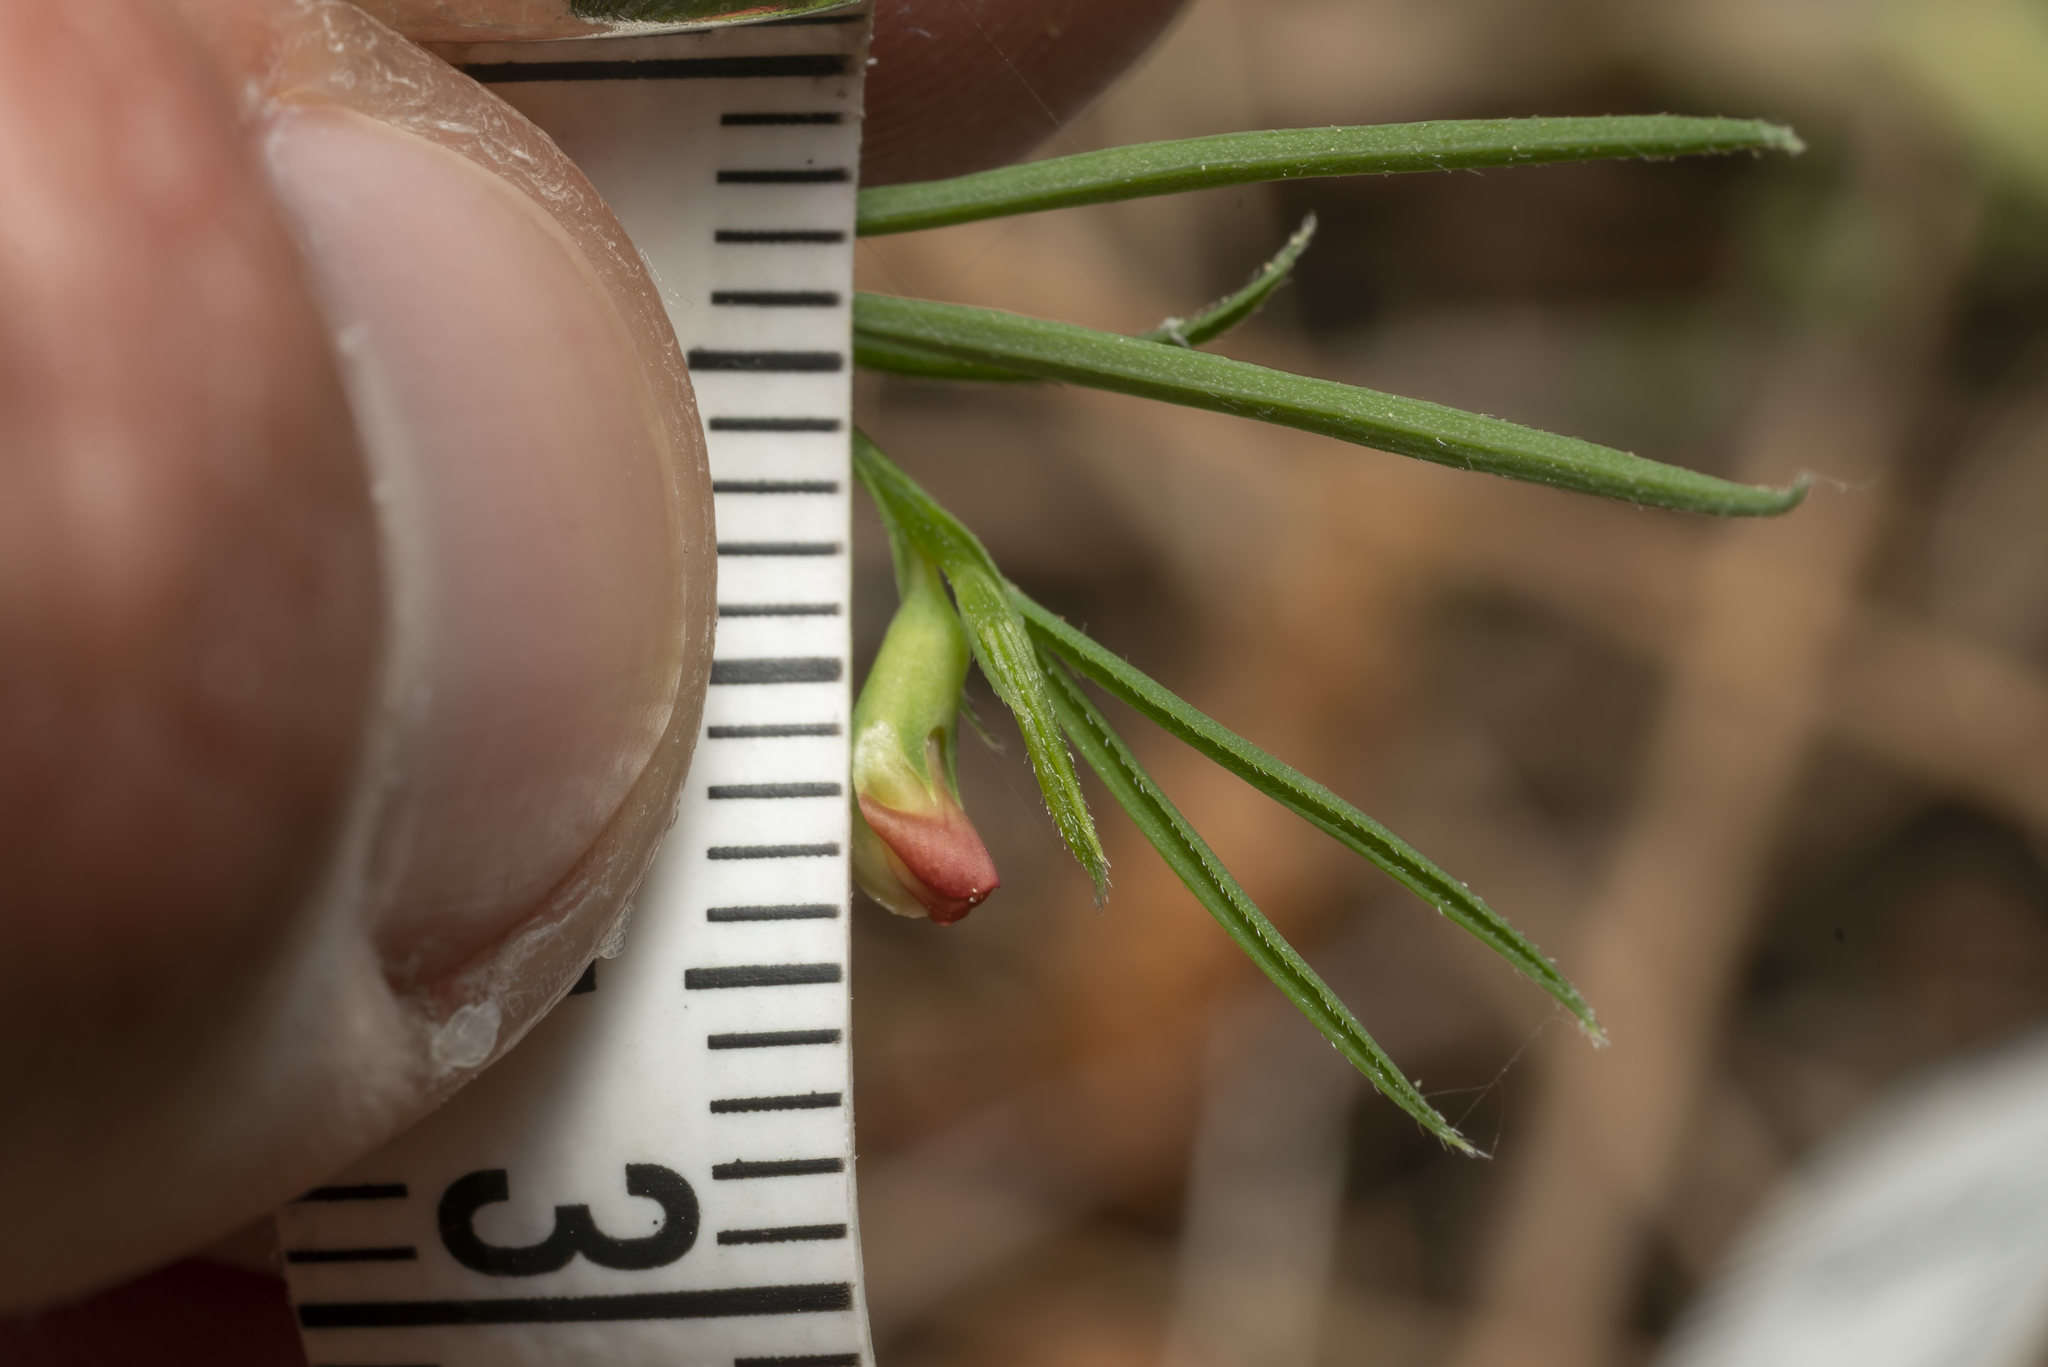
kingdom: Plantae
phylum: Tracheophyta
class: Magnoliopsida
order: Fabales
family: Fabaceae
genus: Lathyrus
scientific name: Lathyrus sphaericus
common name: Grass pea
